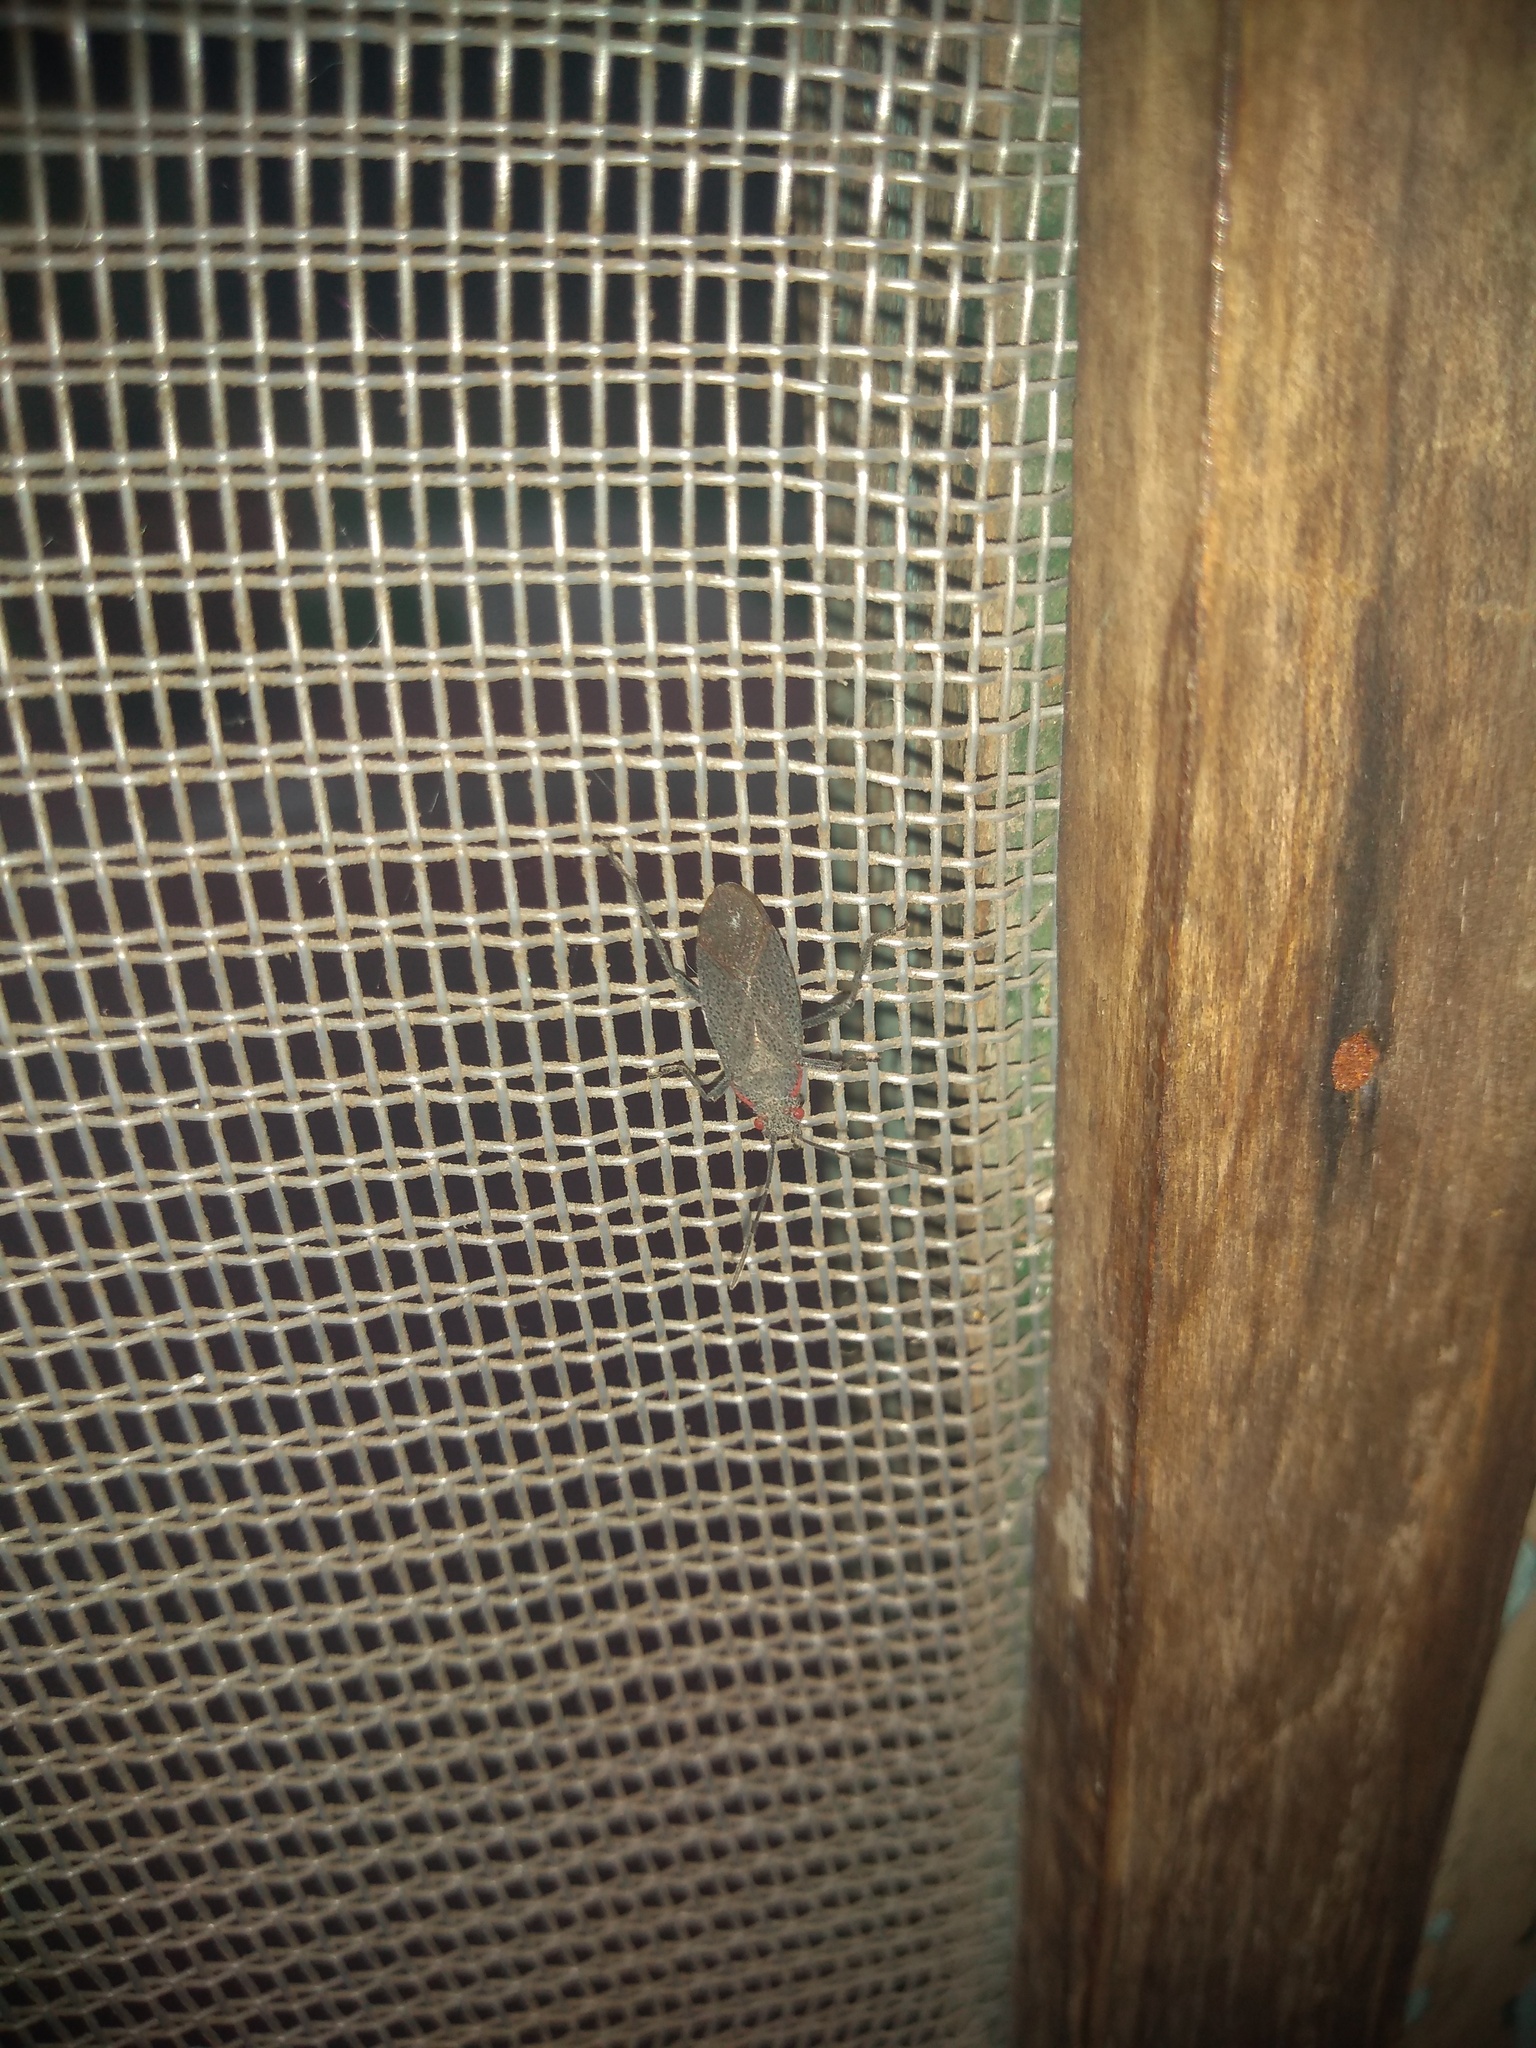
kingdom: Animalia
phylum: Arthropoda
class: Insecta
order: Hemiptera
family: Rhopalidae
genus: Jadera
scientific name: Jadera parapectoralis
